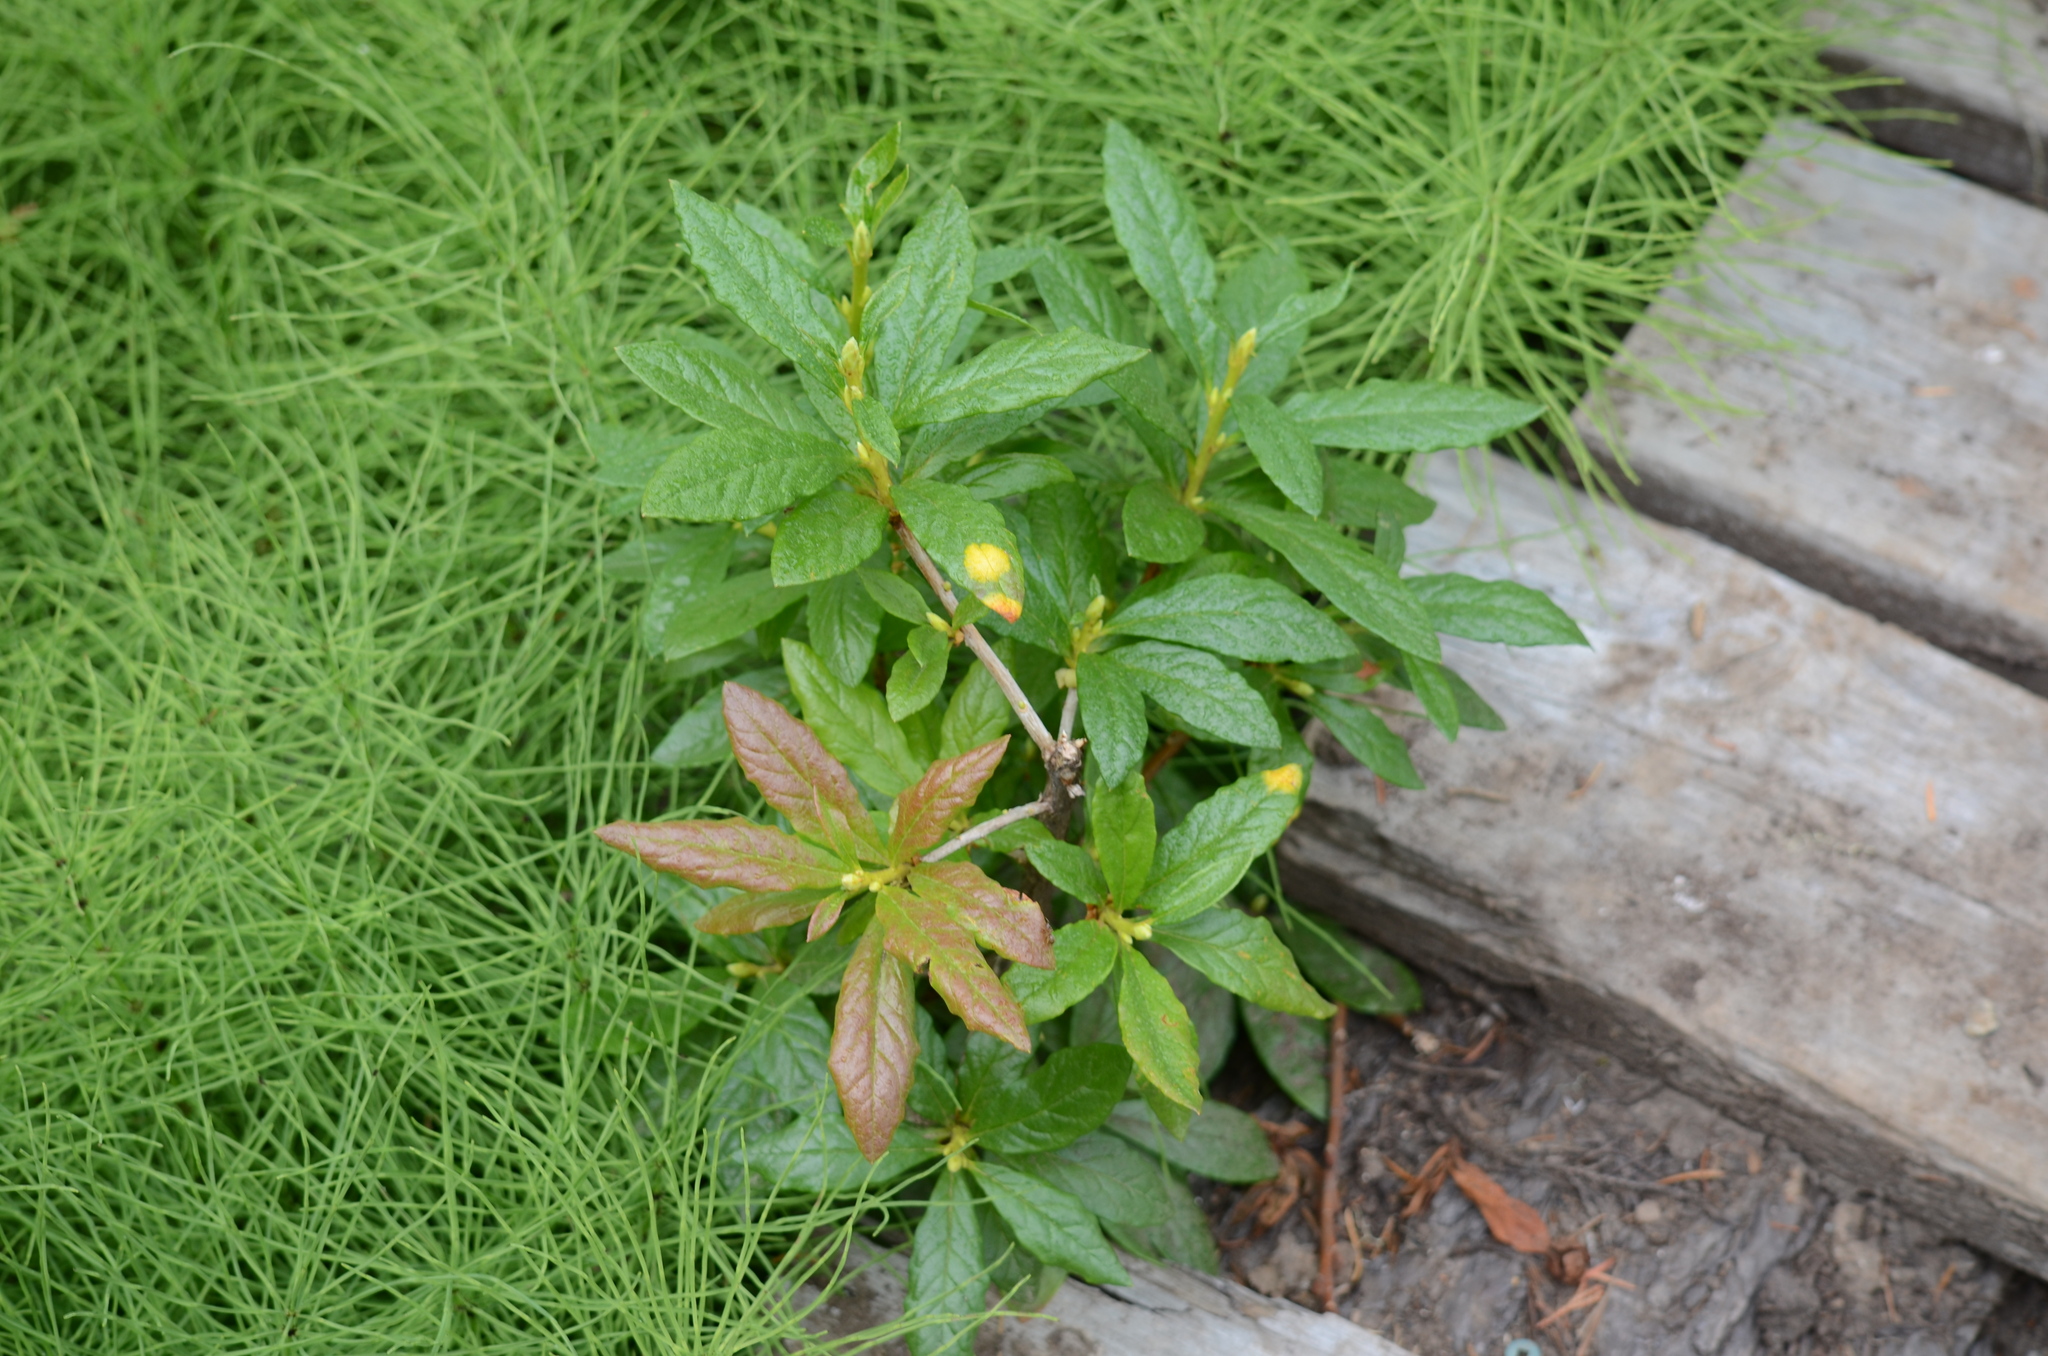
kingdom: Fungi
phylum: Basidiomycota
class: Exobasidiomycetes
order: Exobasidiales
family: Exobasidiaceae
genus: Exobasidium
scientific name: Exobasidium burtii
